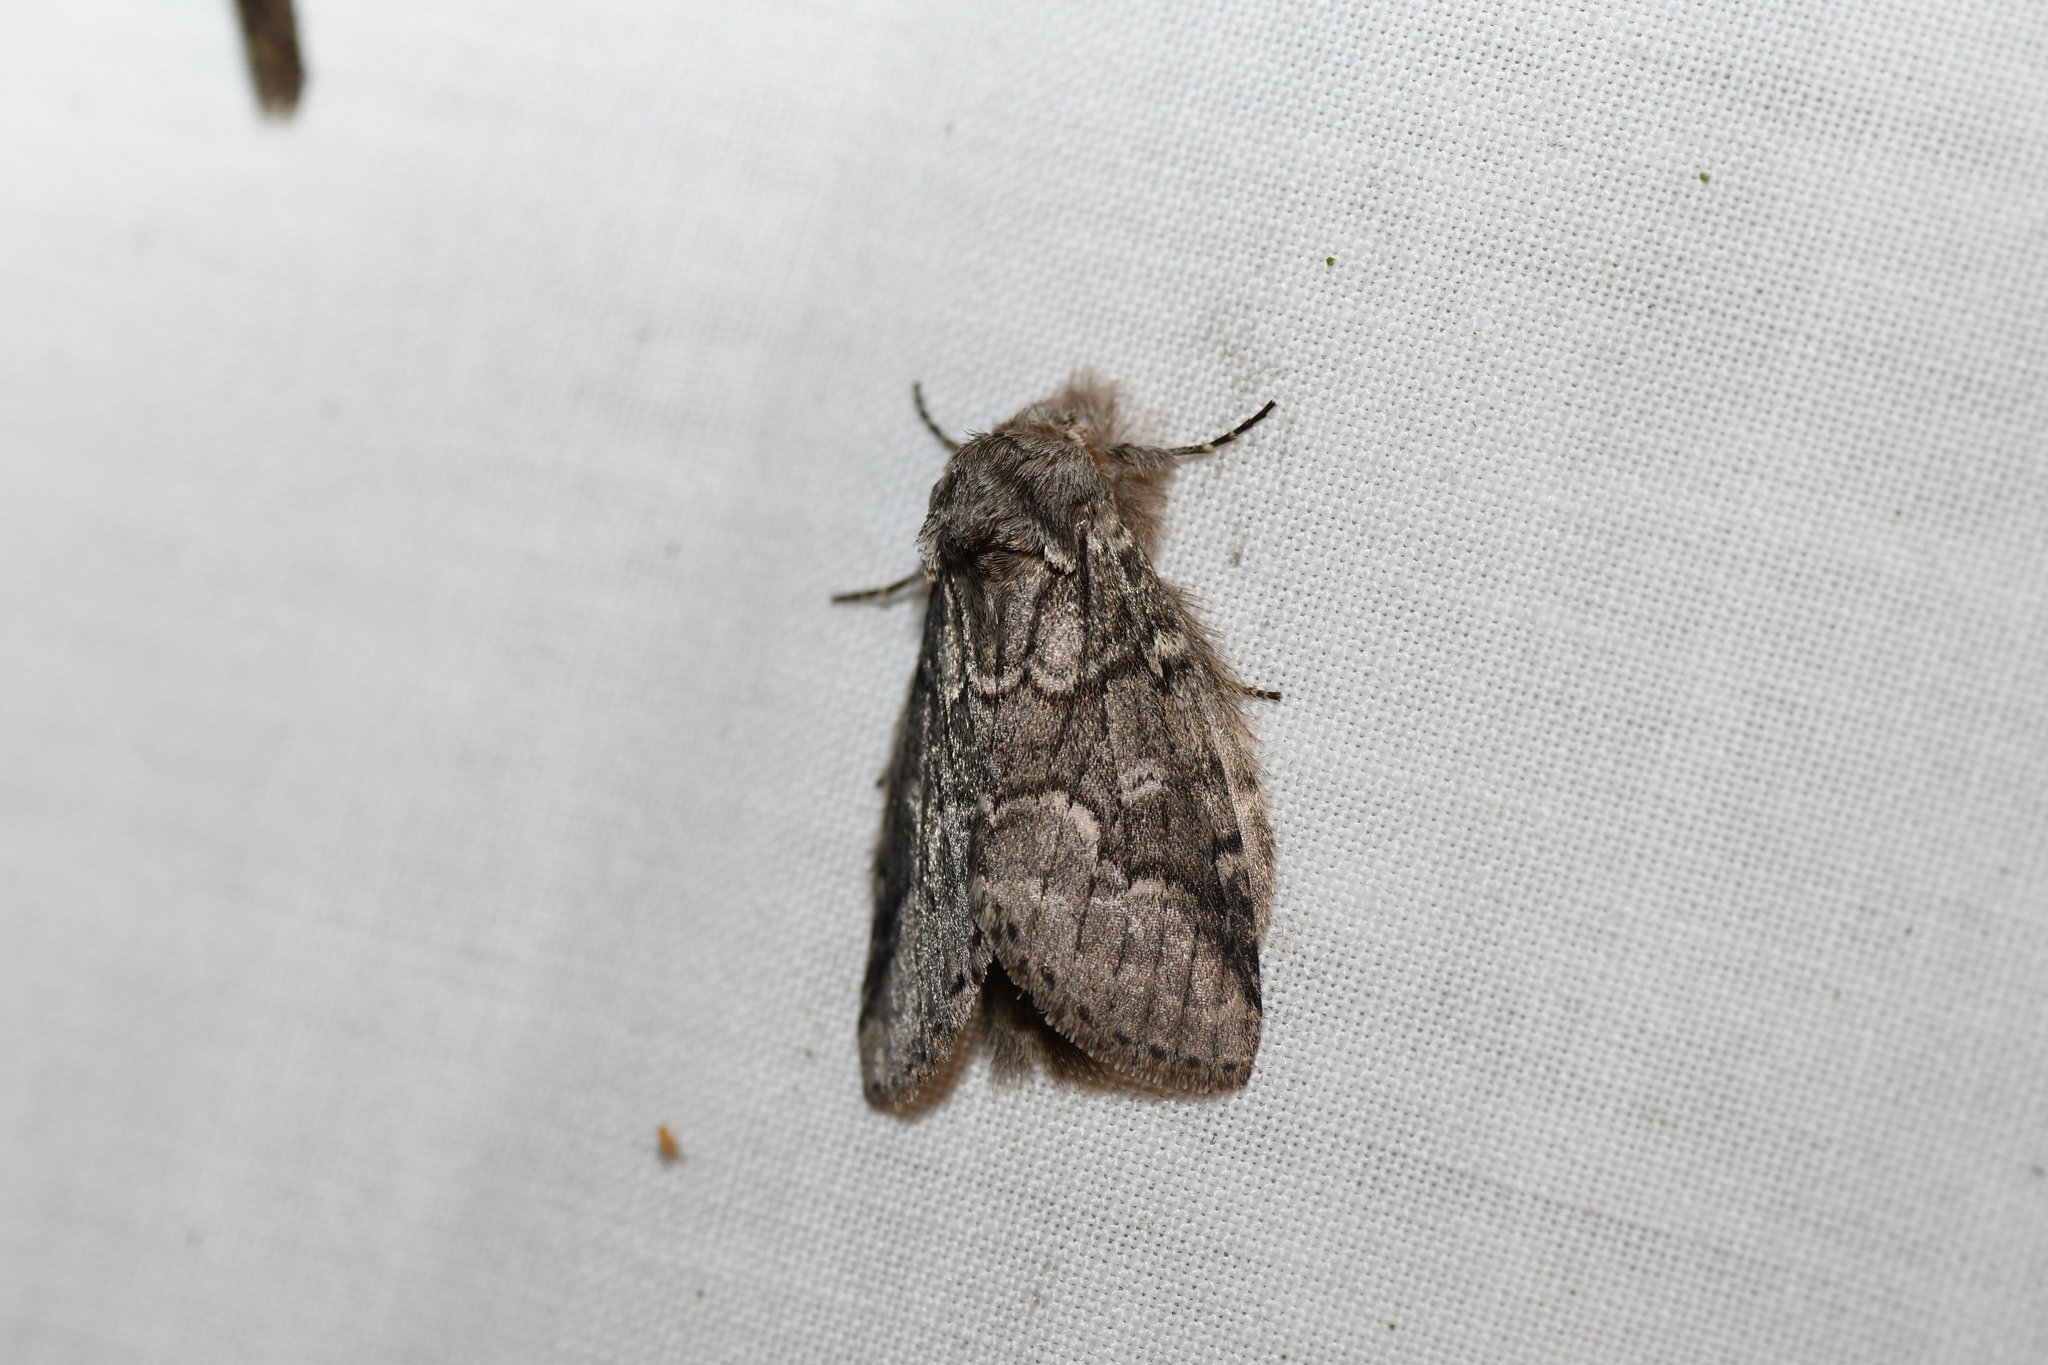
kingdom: Animalia
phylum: Arthropoda
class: Insecta
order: Lepidoptera
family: Notodontidae
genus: Lochmaeus
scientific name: Lochmaeus bilineata
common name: Double-lined prominent
